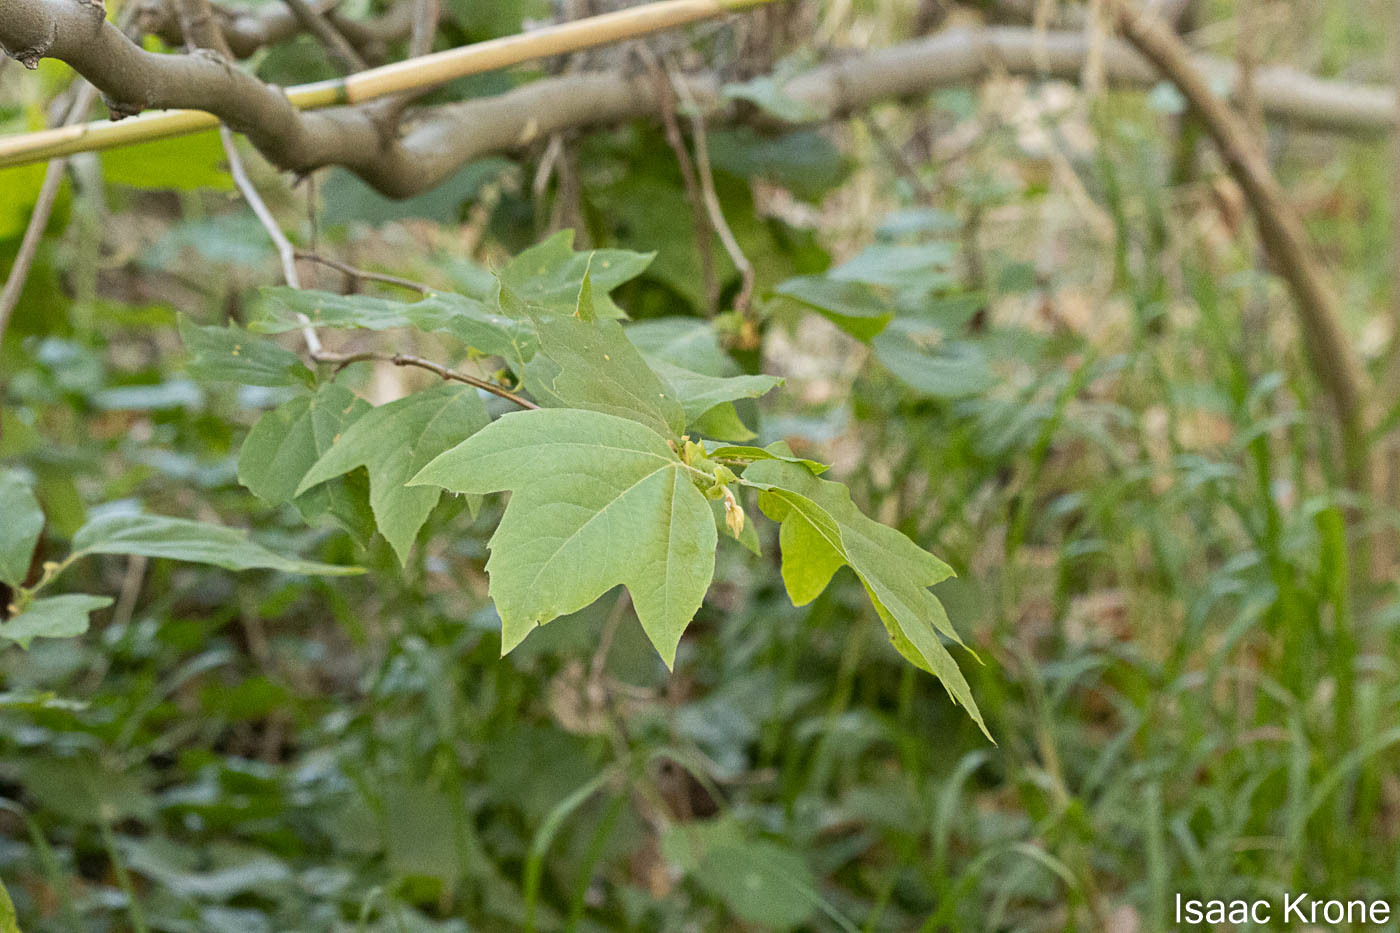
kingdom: Plantae
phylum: Tracheophyta
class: Magnoliopsida
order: Proteales
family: Platanaceae
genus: Platanus
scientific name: Platanus racemosa
